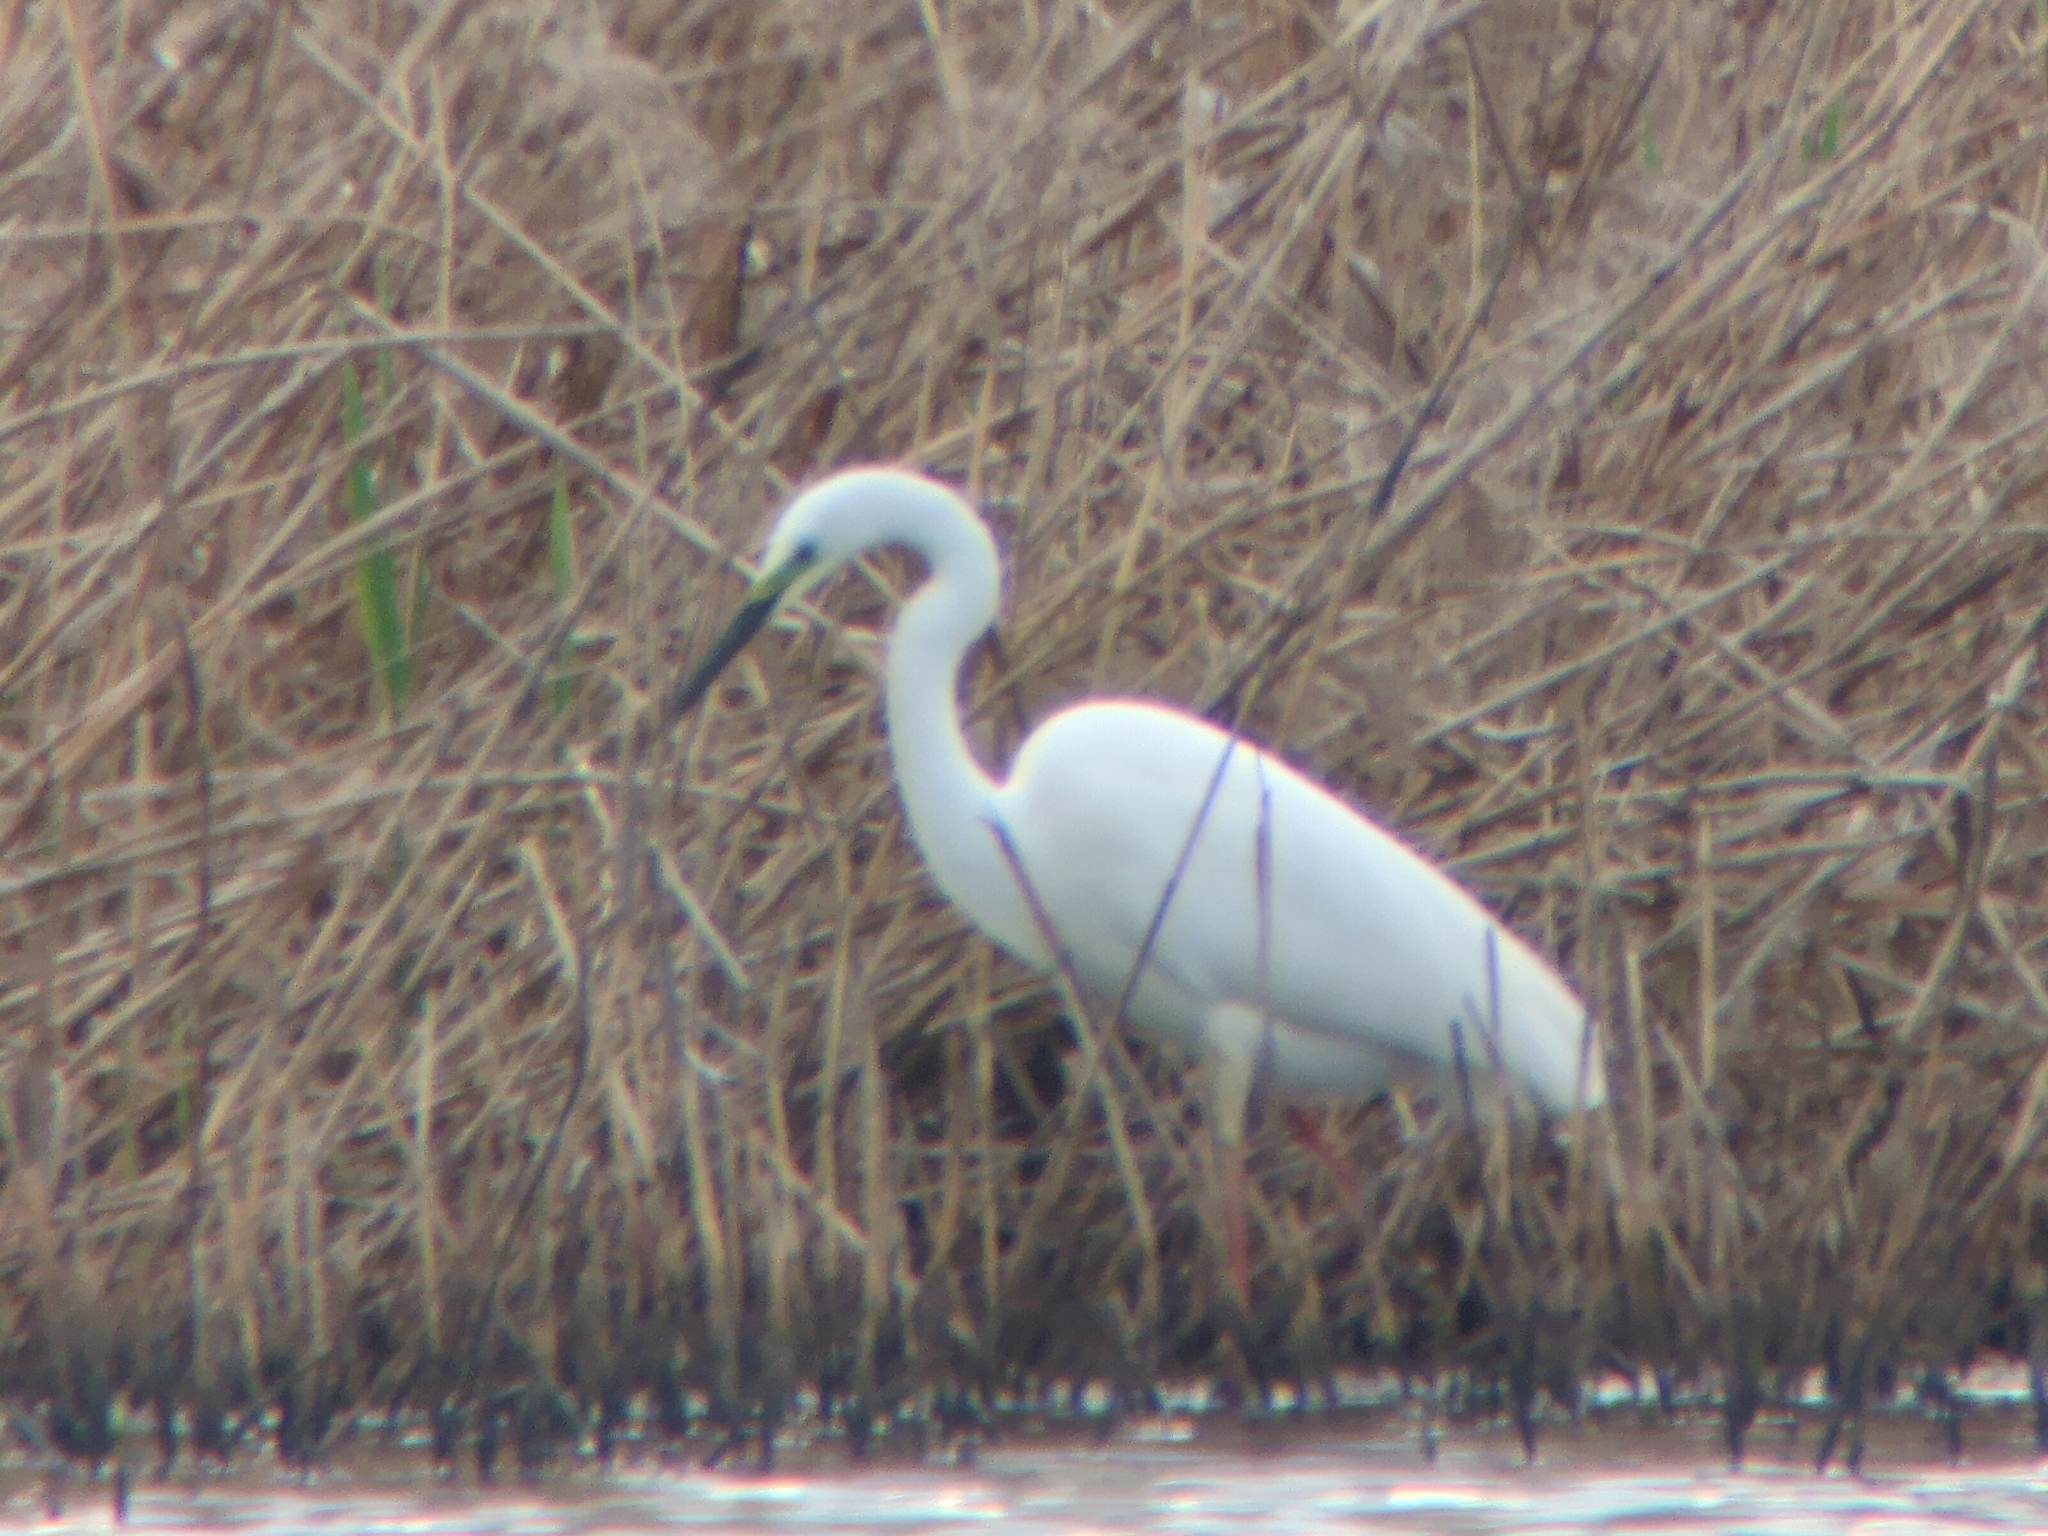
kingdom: Animalia
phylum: Chordata
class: Aves
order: Pelecaniformes
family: Ardeidae
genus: Ardea
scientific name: Ardea alba
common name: Great egret
